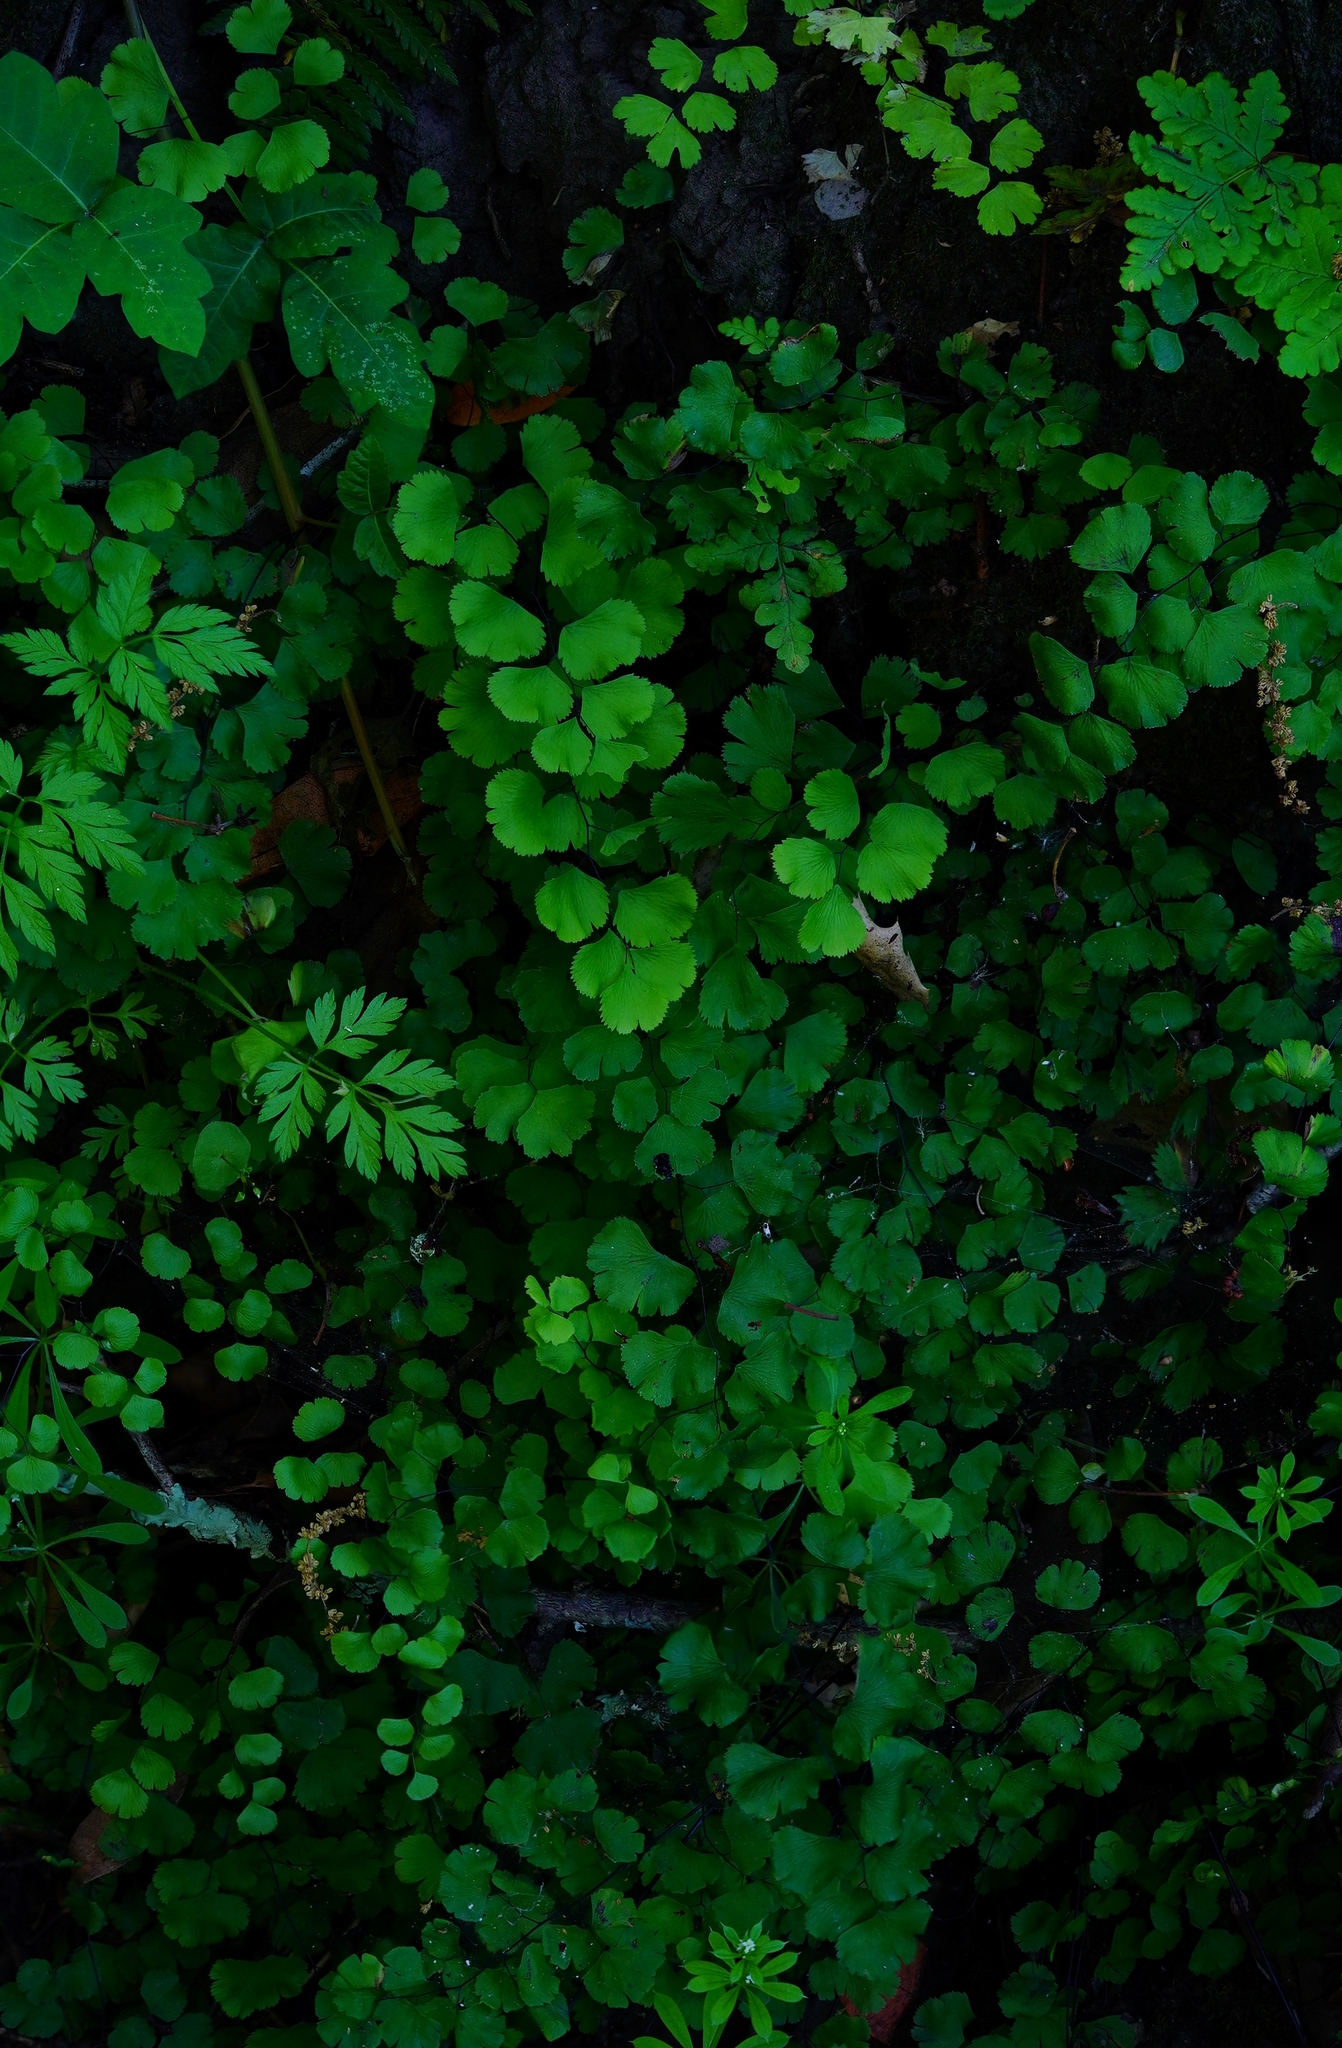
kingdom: Plantae
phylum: Tracheophyta
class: Polypodiopsida
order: Polypodiales
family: Pteridaceae
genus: Adiantum
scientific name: Adiantum jordanii
